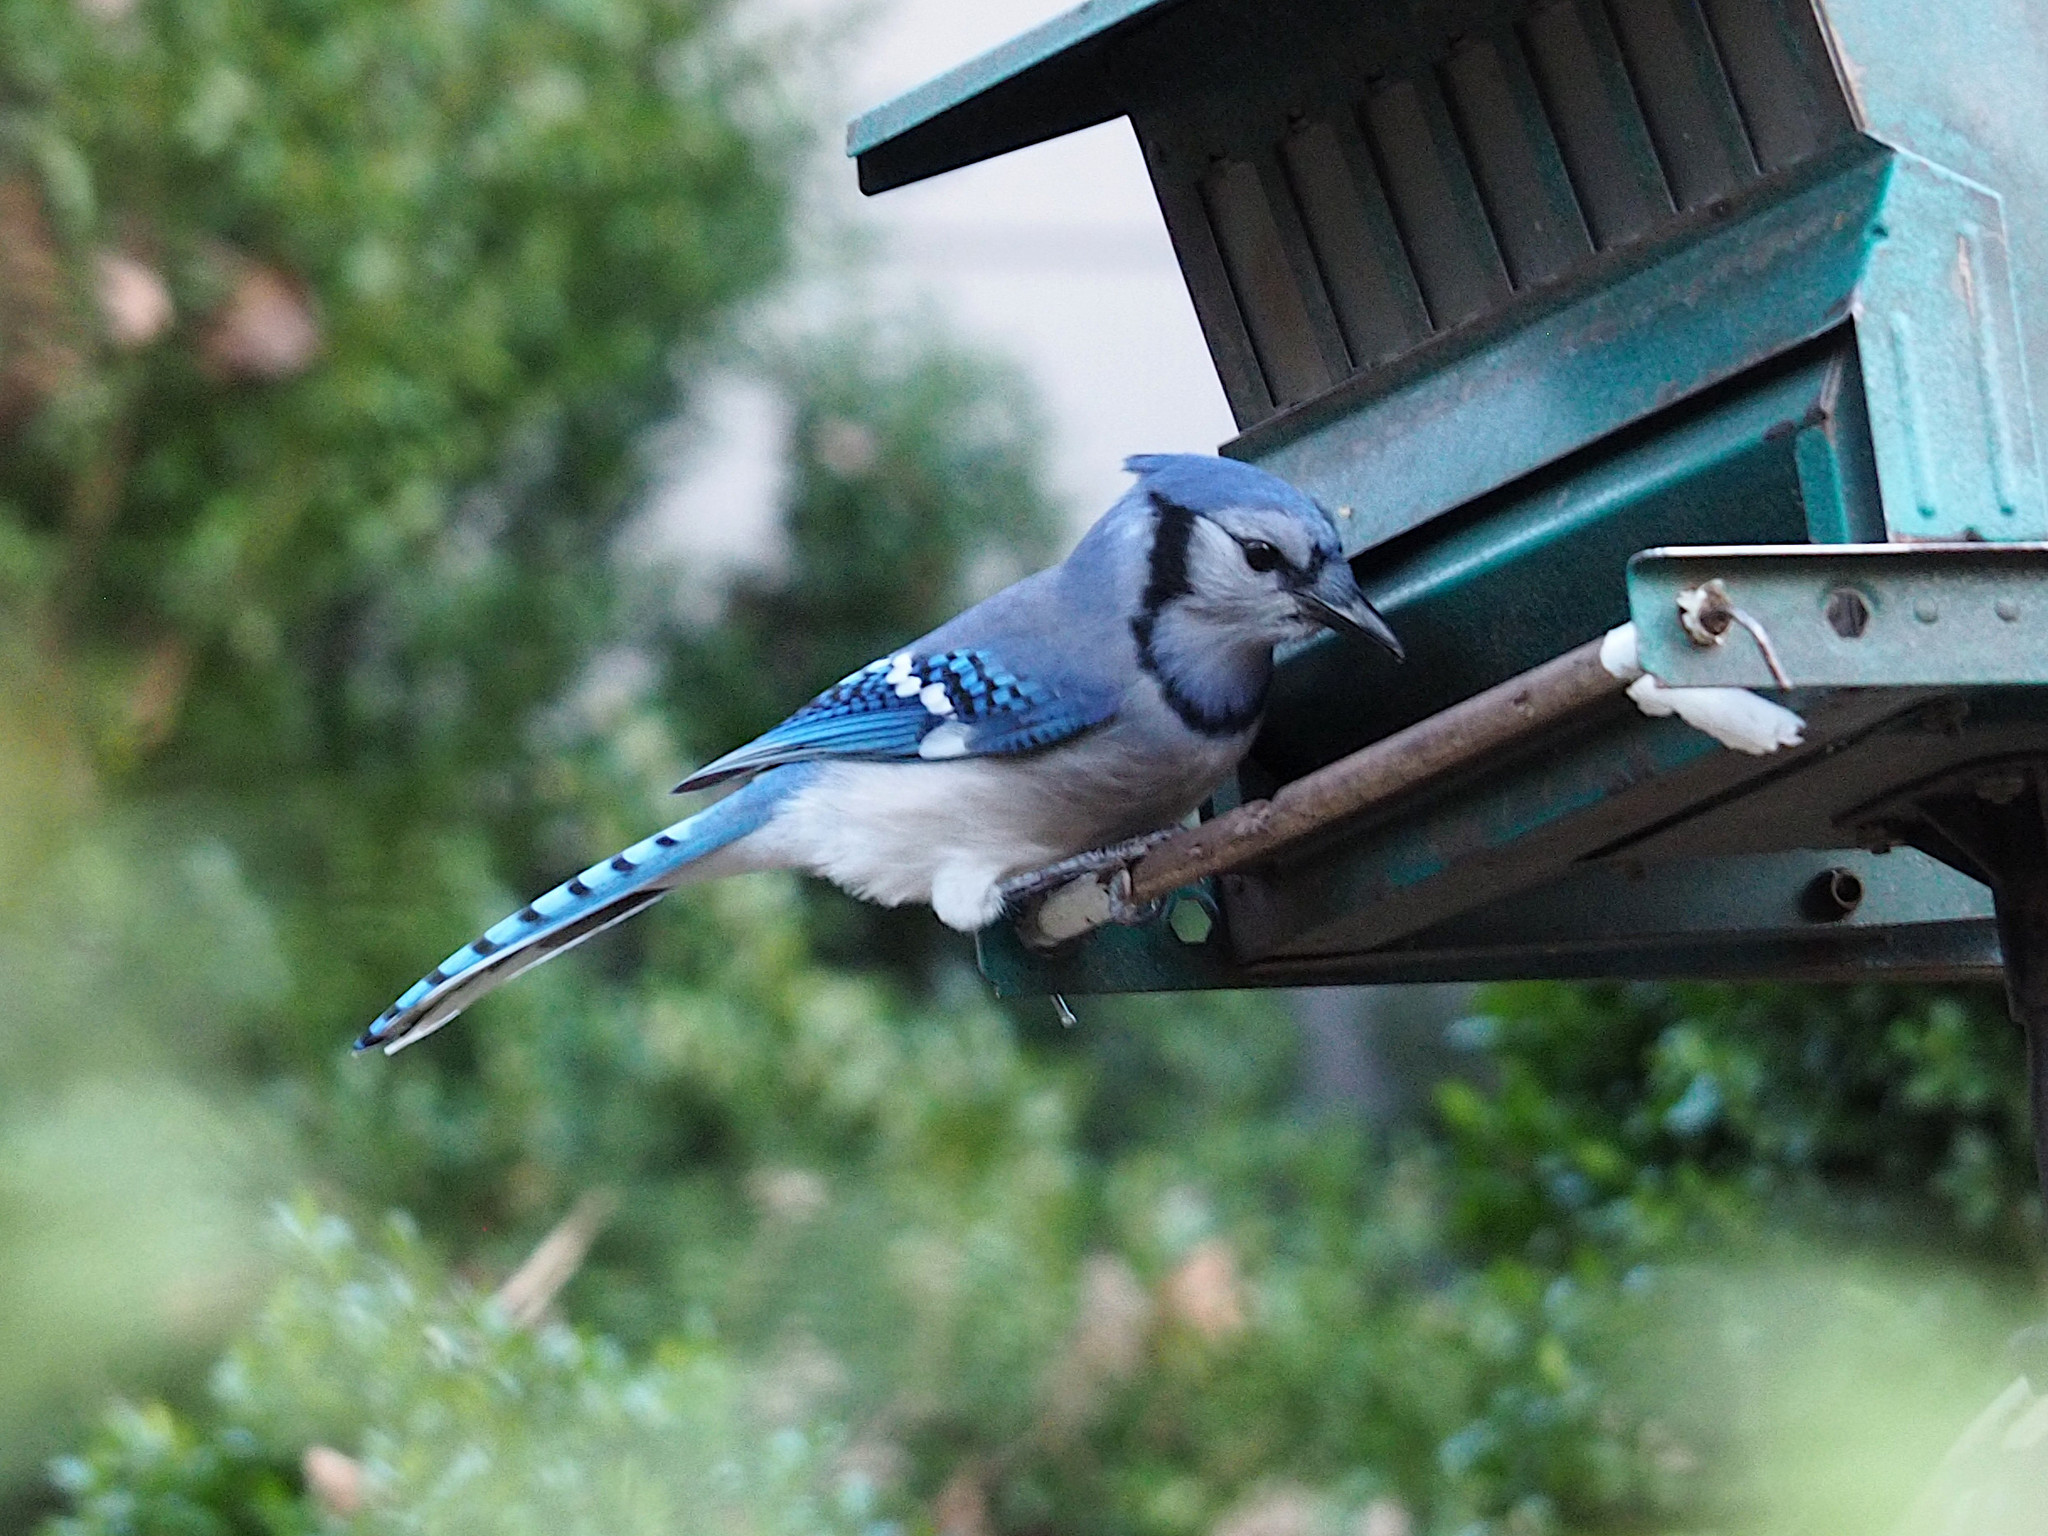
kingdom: Animalia
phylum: Chordata
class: Aves
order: Passeriformes
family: Corvidae
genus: Cyanocitta
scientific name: Cyanocitta cristata
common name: Blue jay
